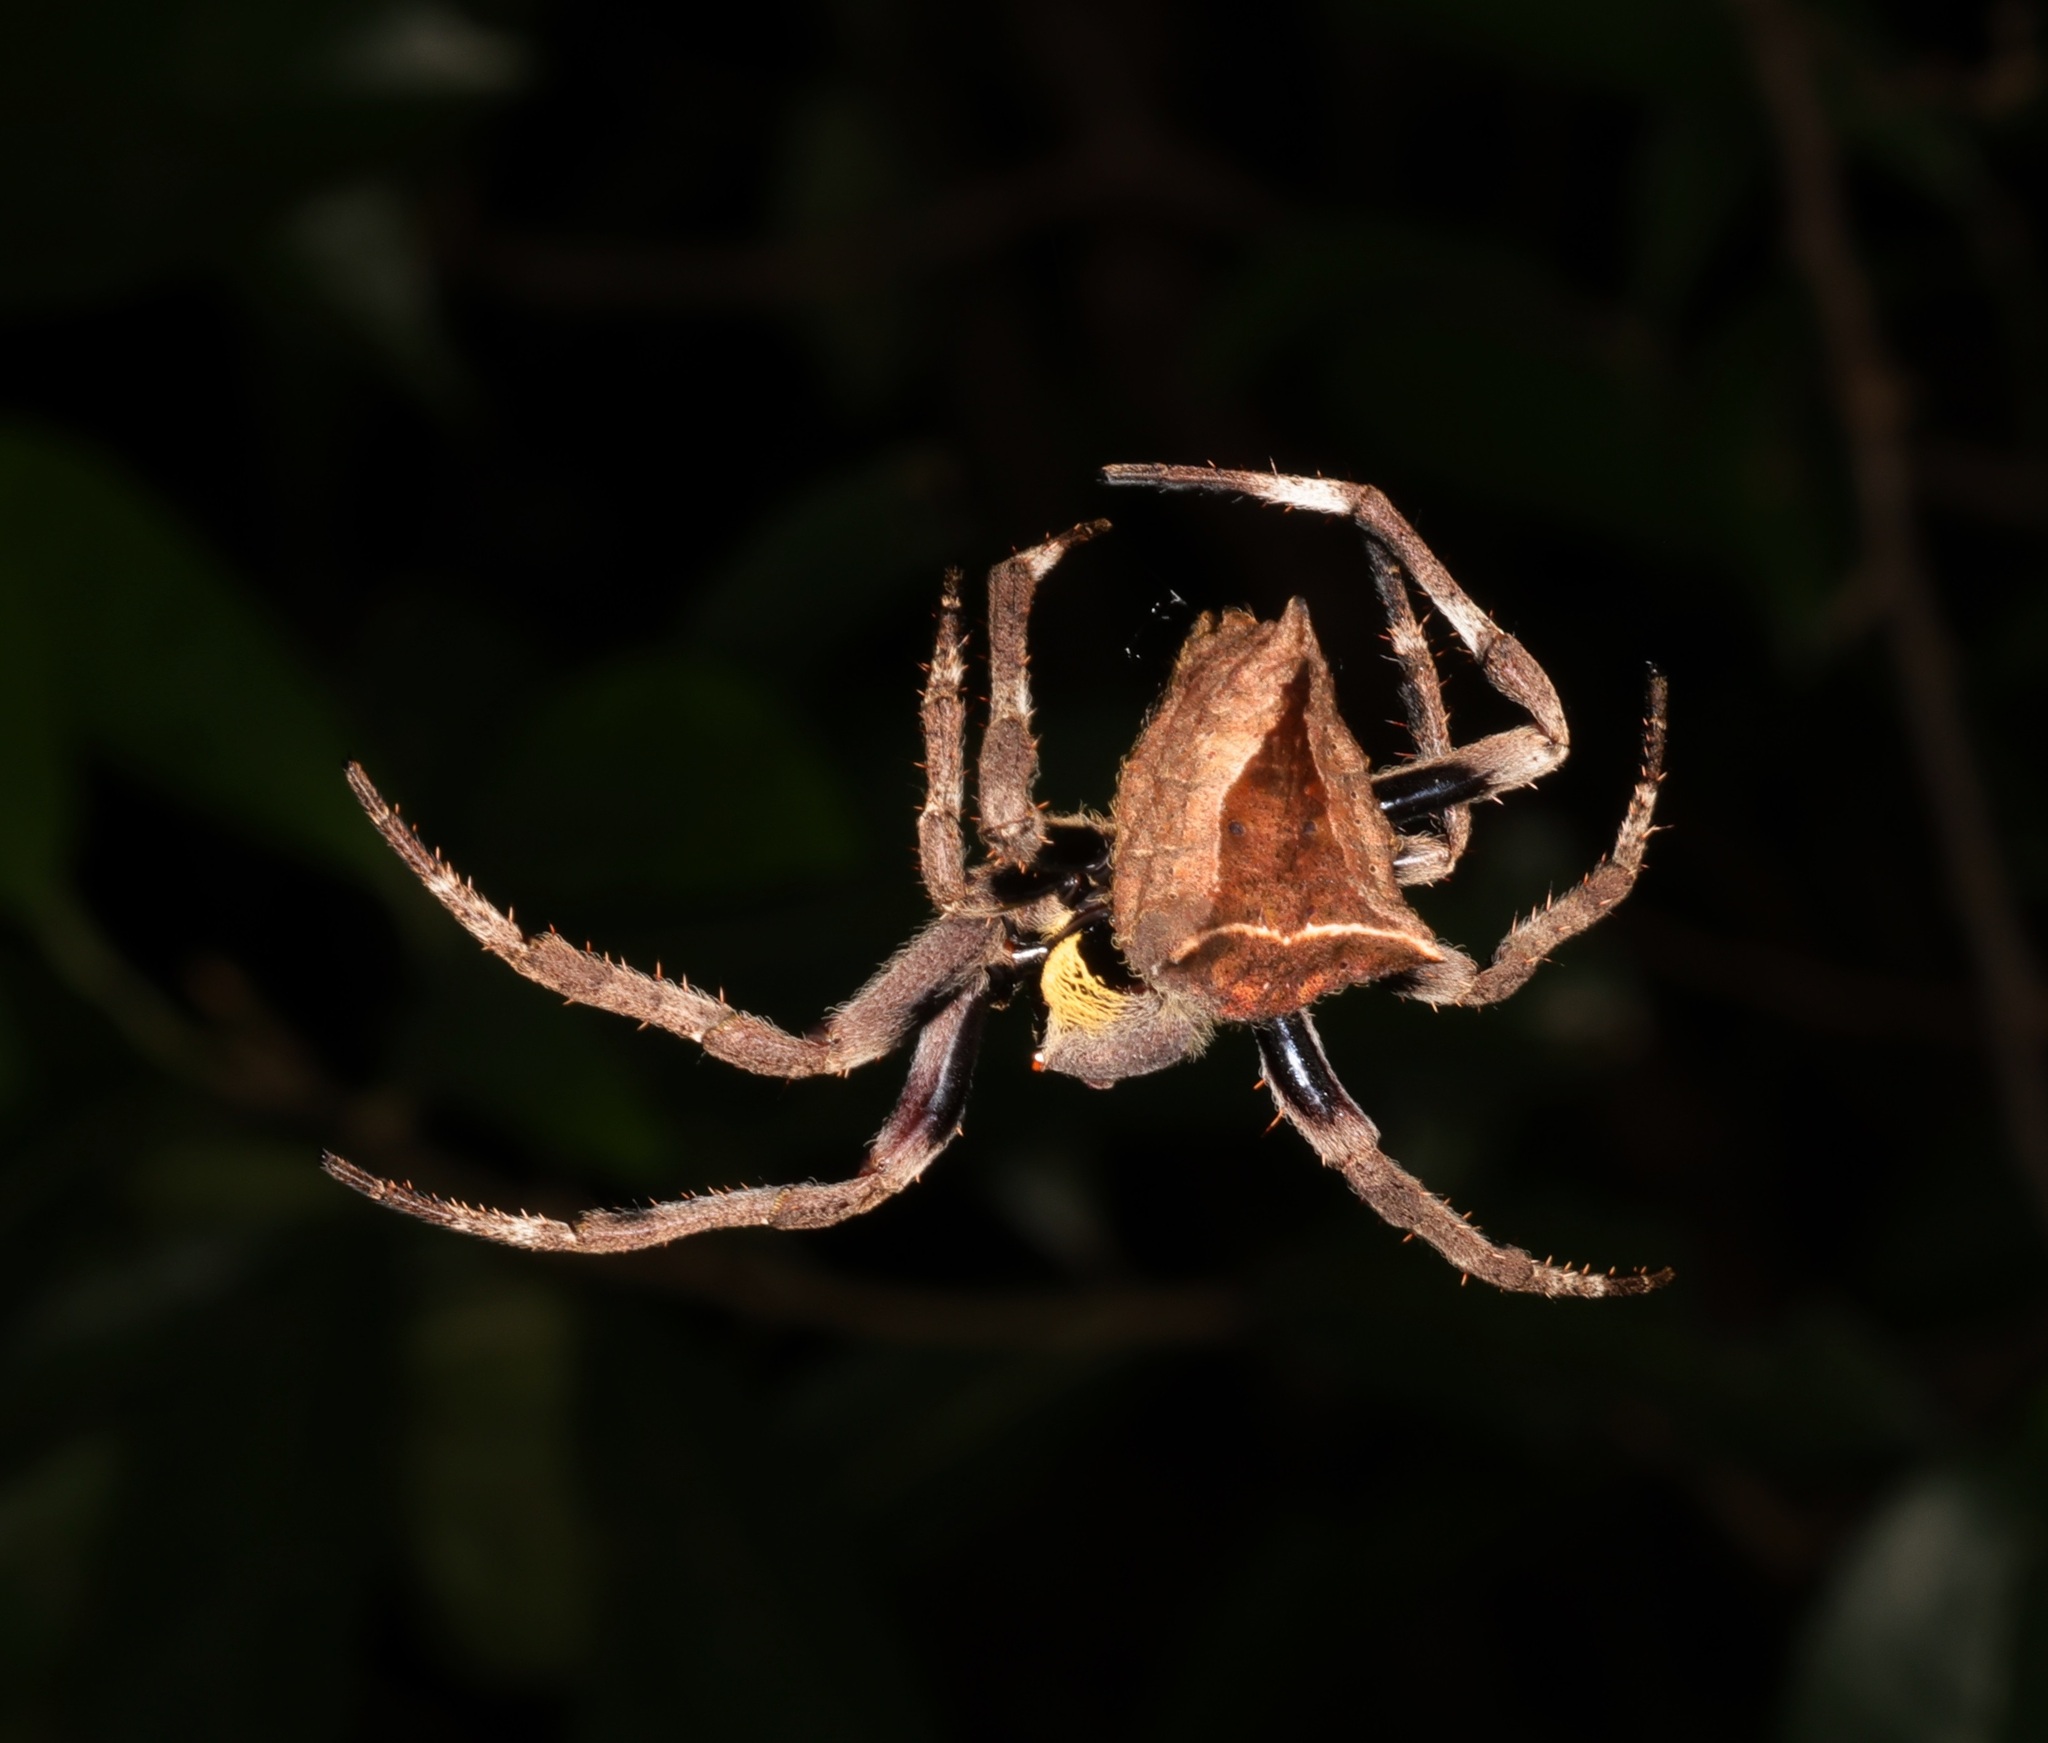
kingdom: Animalia
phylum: Arthropoda
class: Arachnida
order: Araneae
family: Araneidae
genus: Parawixia
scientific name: Parawixia dehaani
